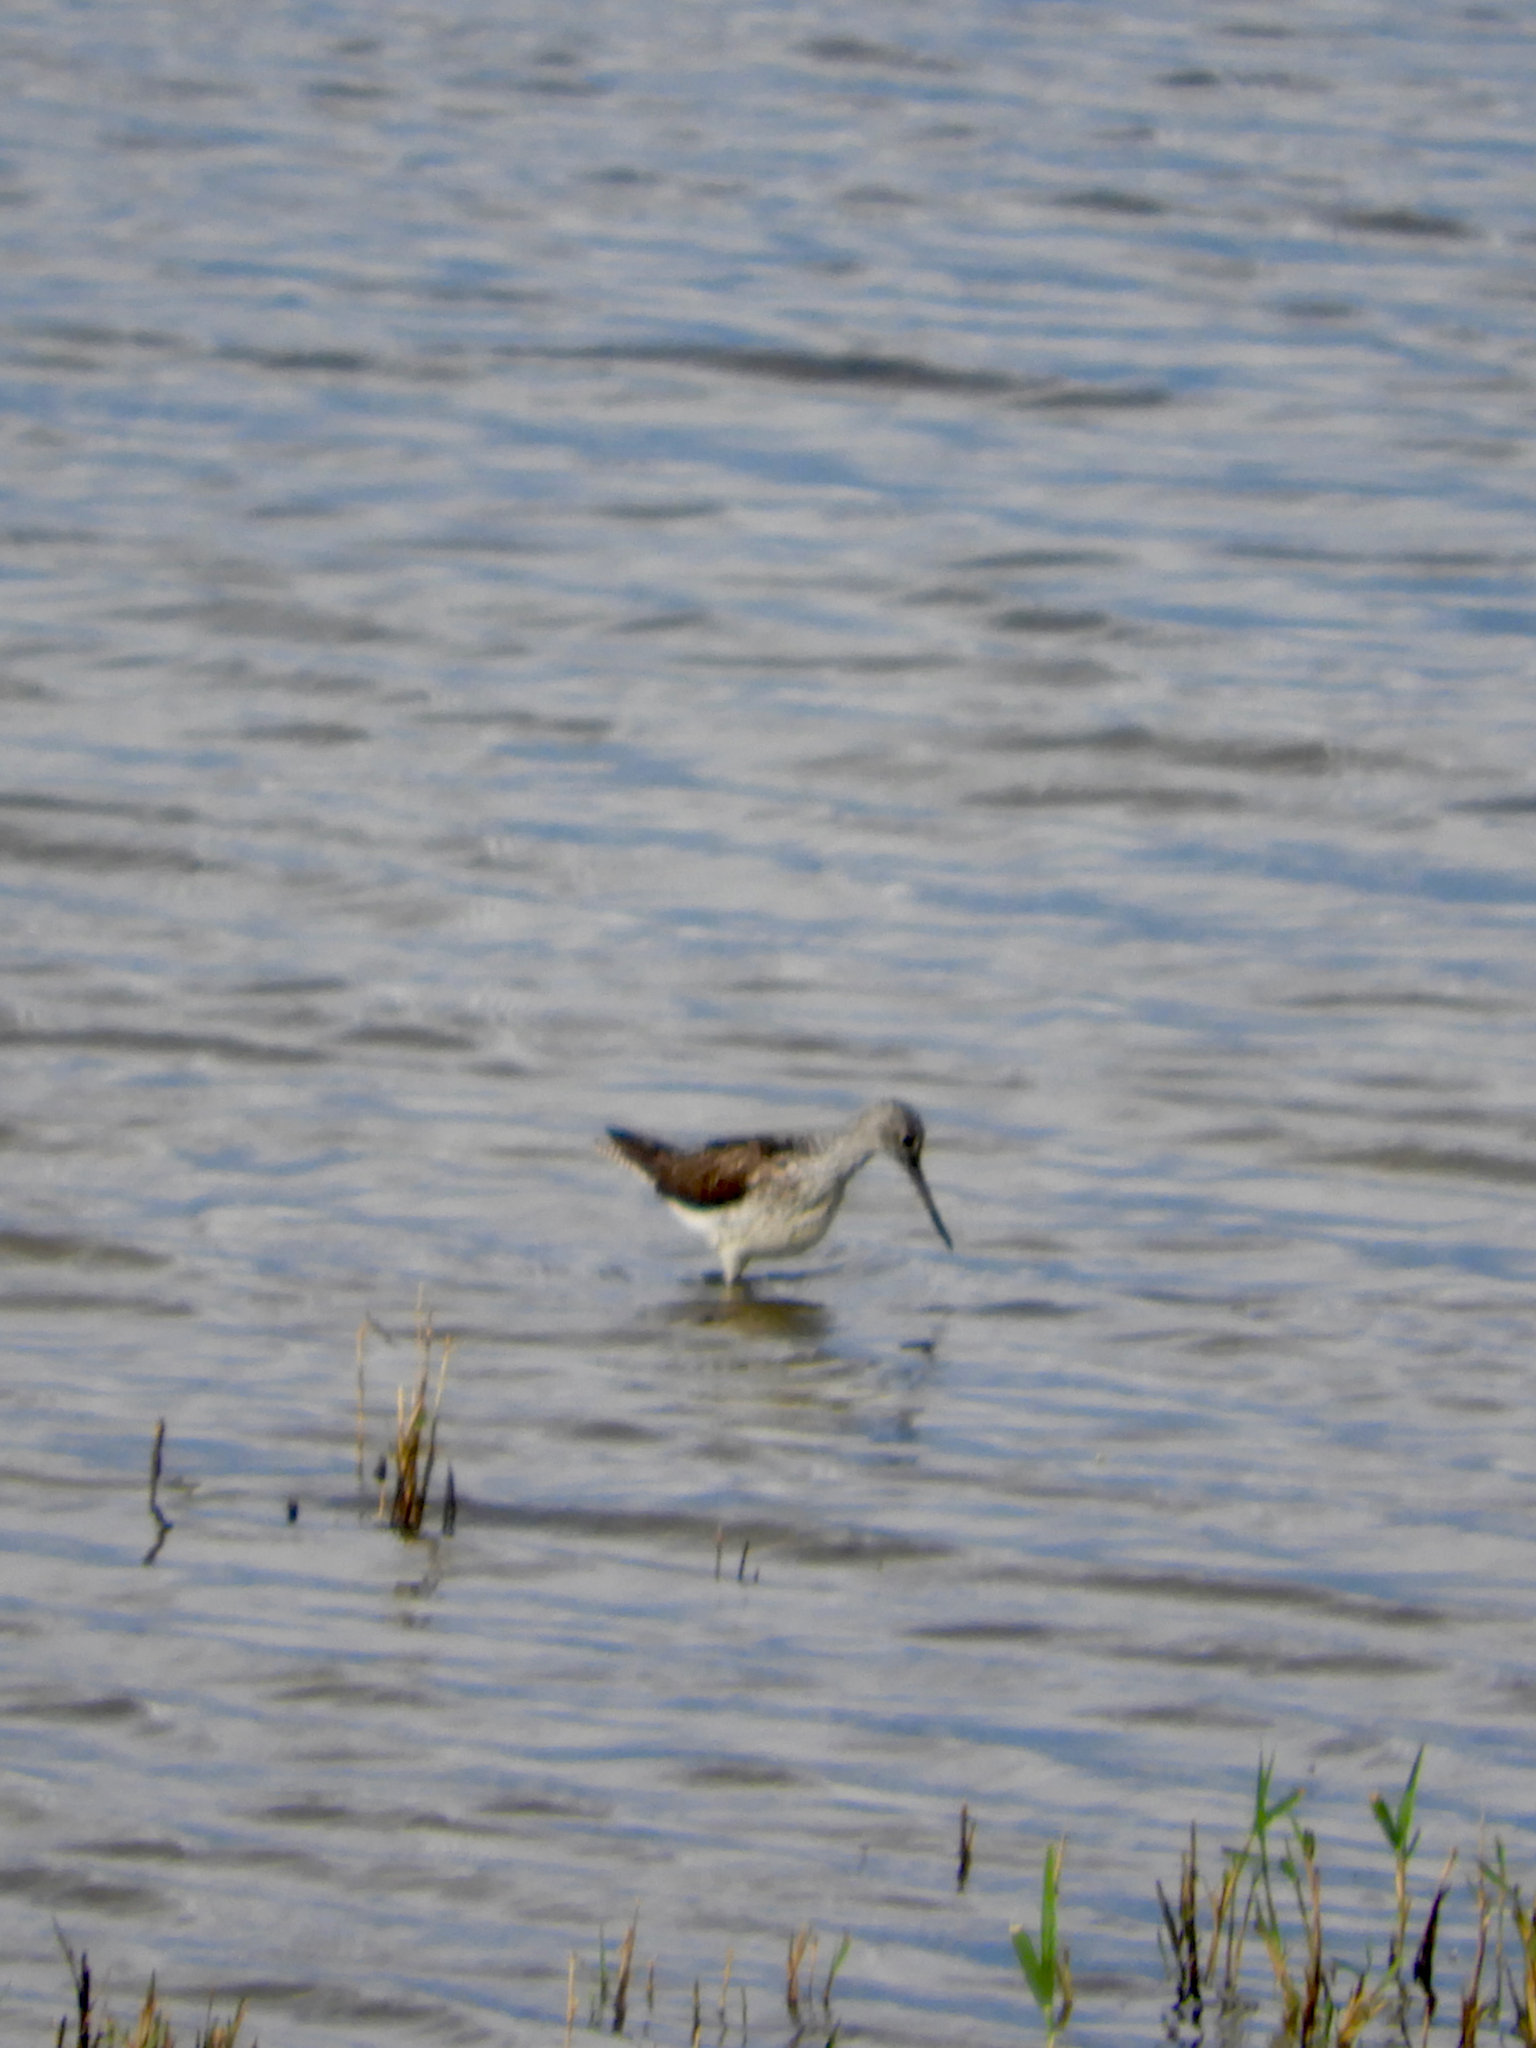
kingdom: Animalia
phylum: Chordata
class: Aves
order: Charadriiformes
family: Scolopacidae
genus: Tringa
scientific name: Tringa nebularia
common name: Common greenshank
